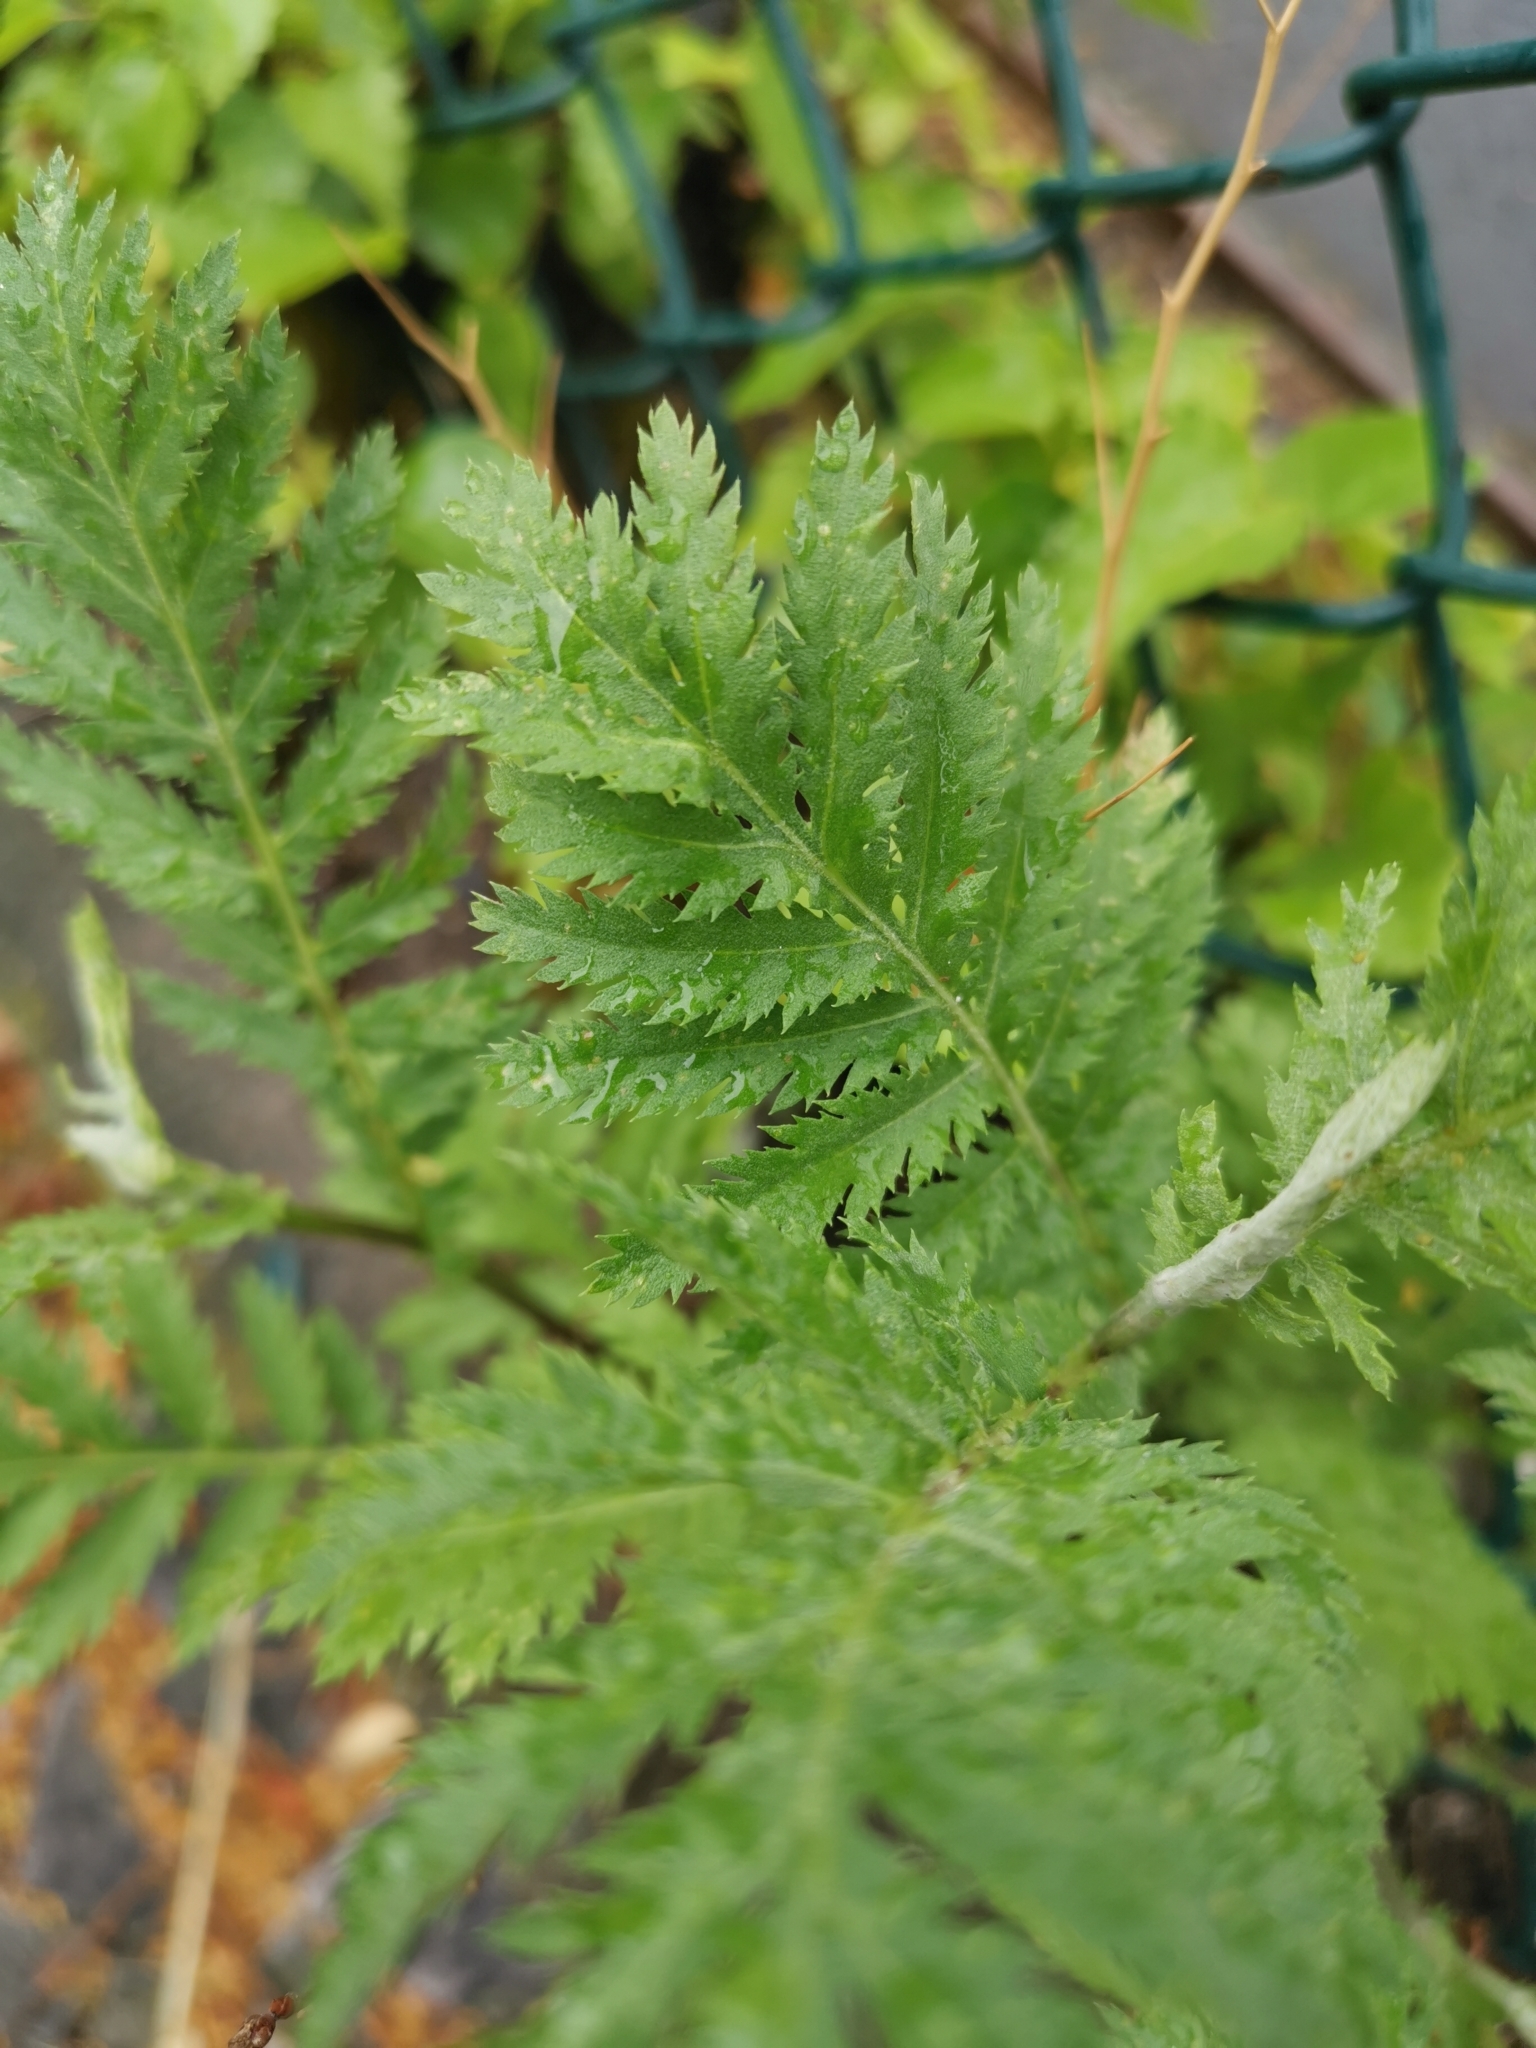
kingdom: Plantae
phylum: Tracheophyta
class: Magnoliopsida
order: Asterales
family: Asteraceae
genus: Tanacetum
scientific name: Tanacetum vulgare
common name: Common tansy
